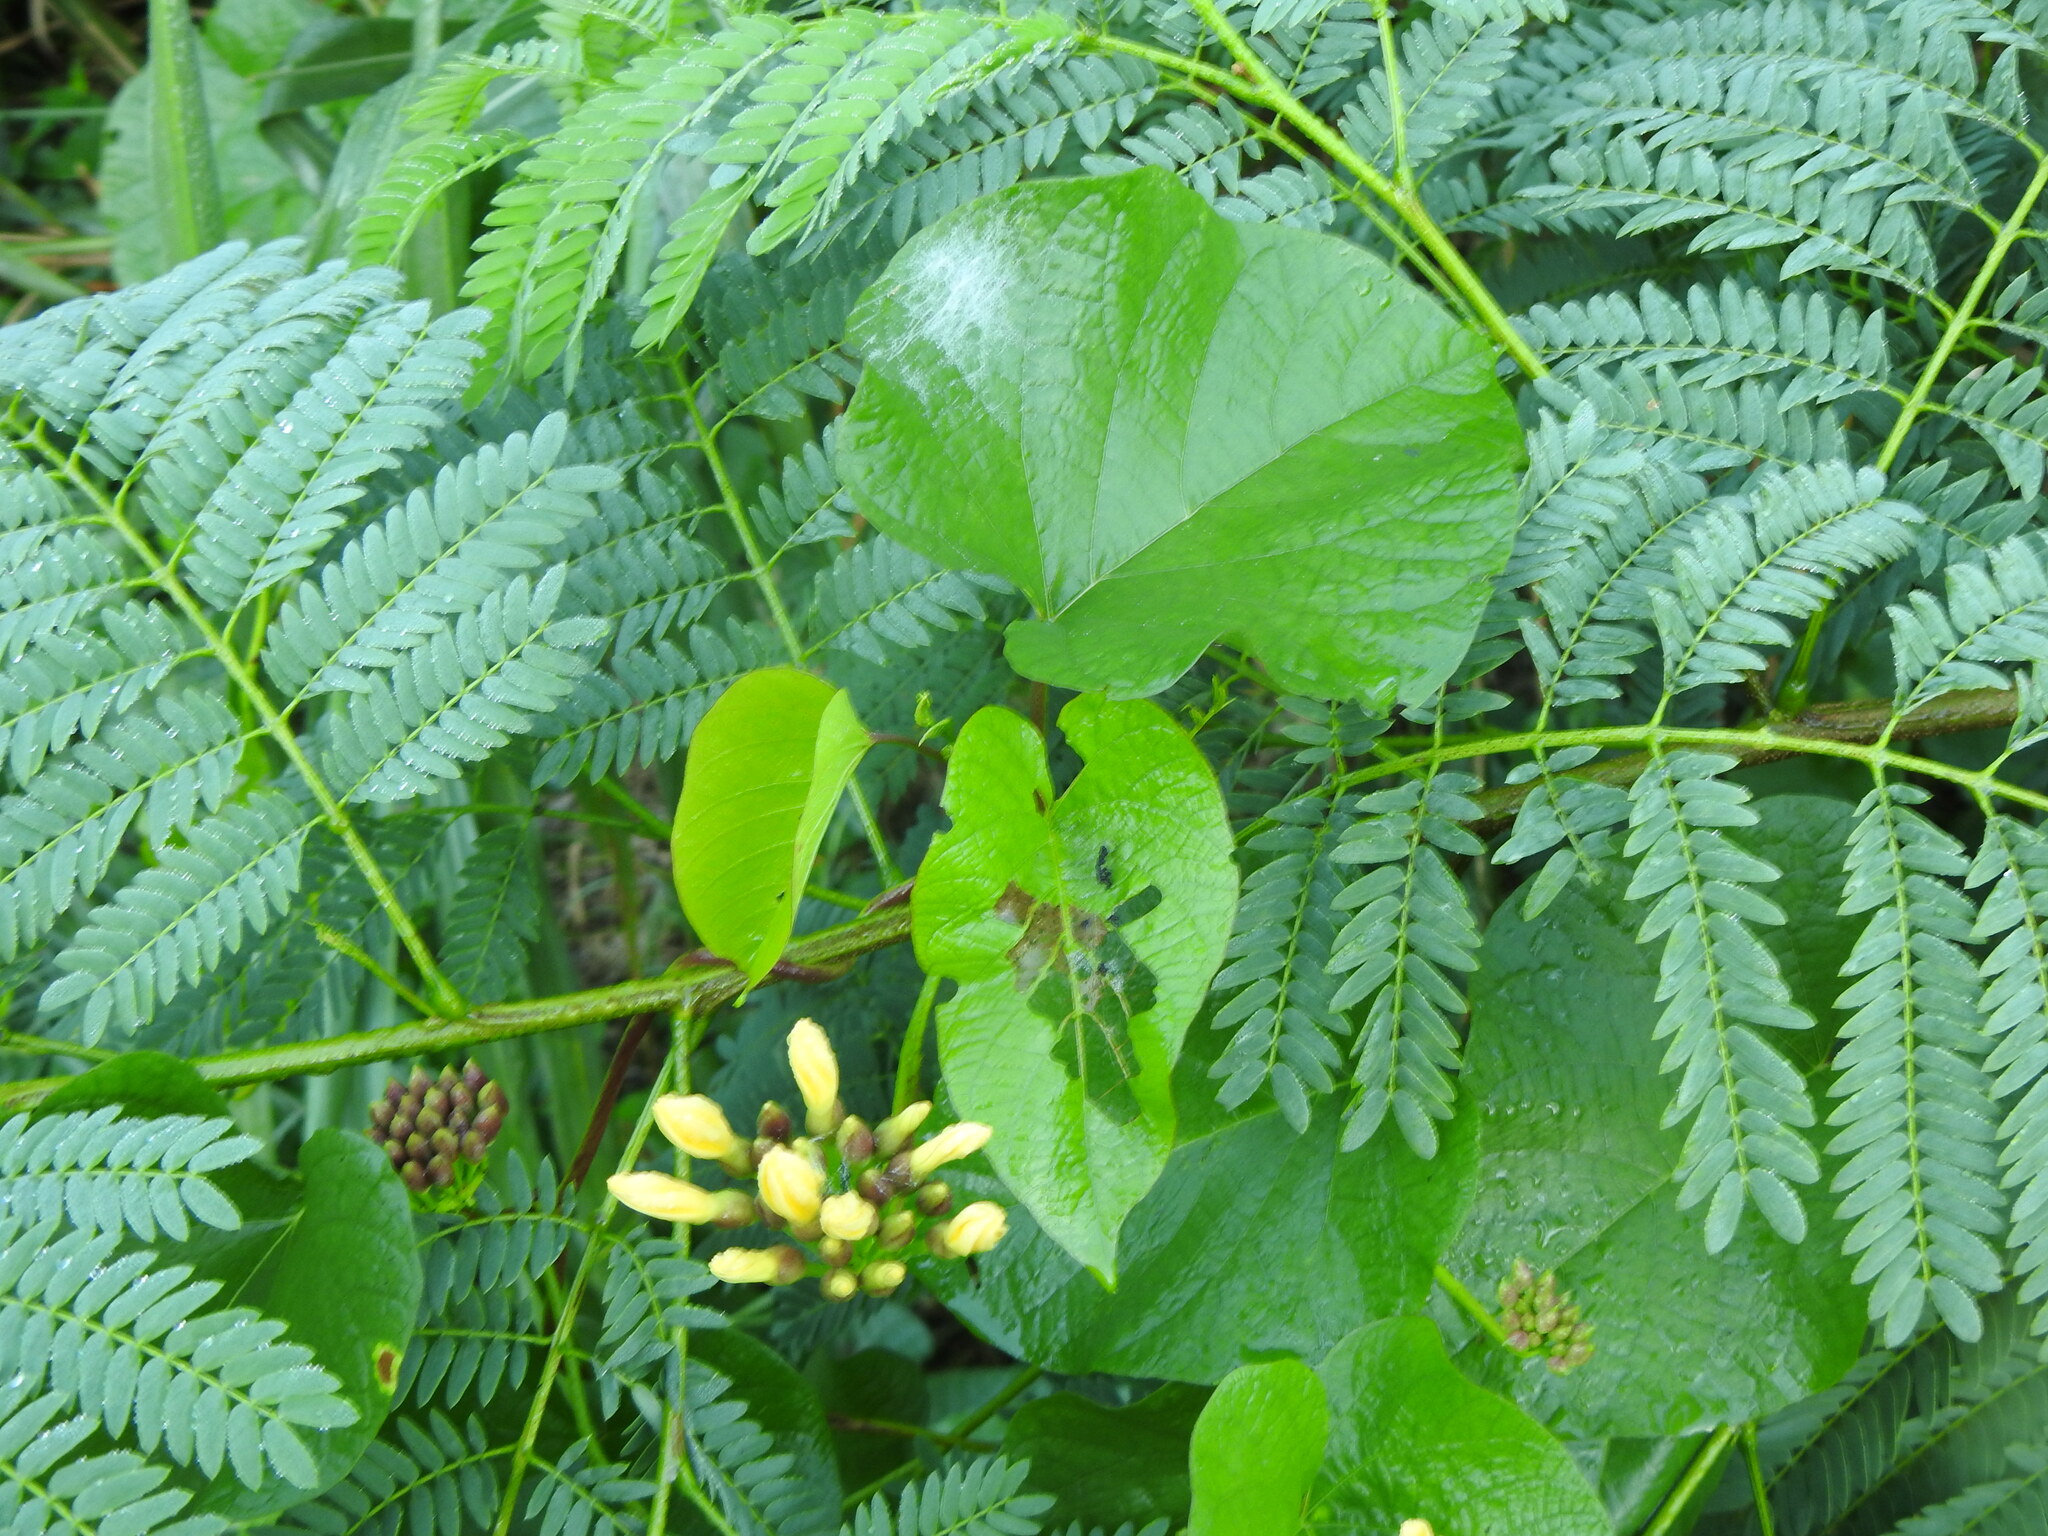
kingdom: Plantae
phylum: Tracheophyta
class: Magnoliopsida
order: Solanales
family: Convolvulaceae
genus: Camonea
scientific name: Camonea umbellata
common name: Hogvine
